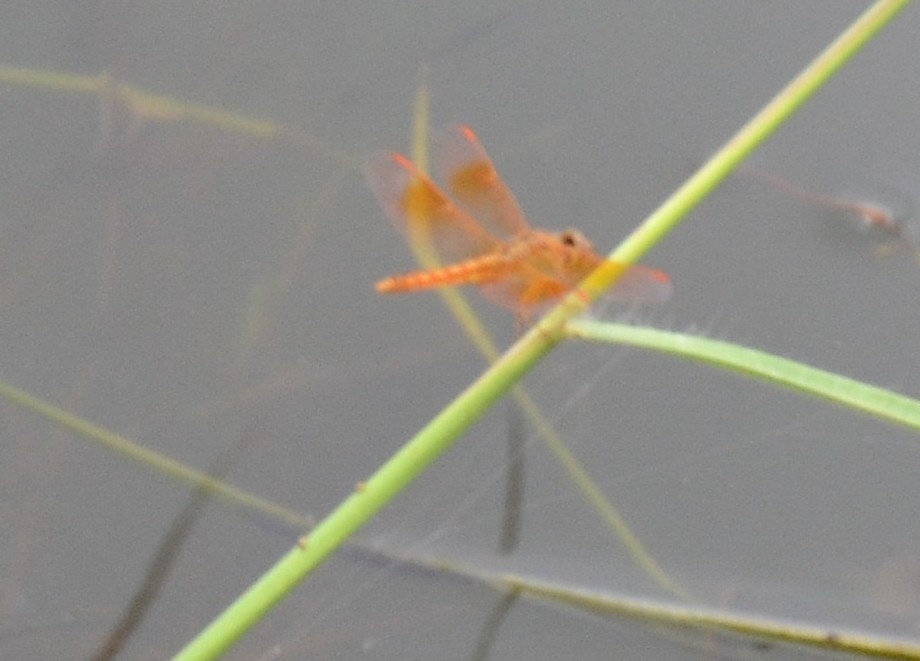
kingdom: Animalia
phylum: Arthropoda
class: Insecta
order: Odonata
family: Libellulidae
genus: Brachythemis
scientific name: Brachythemis contaminata
